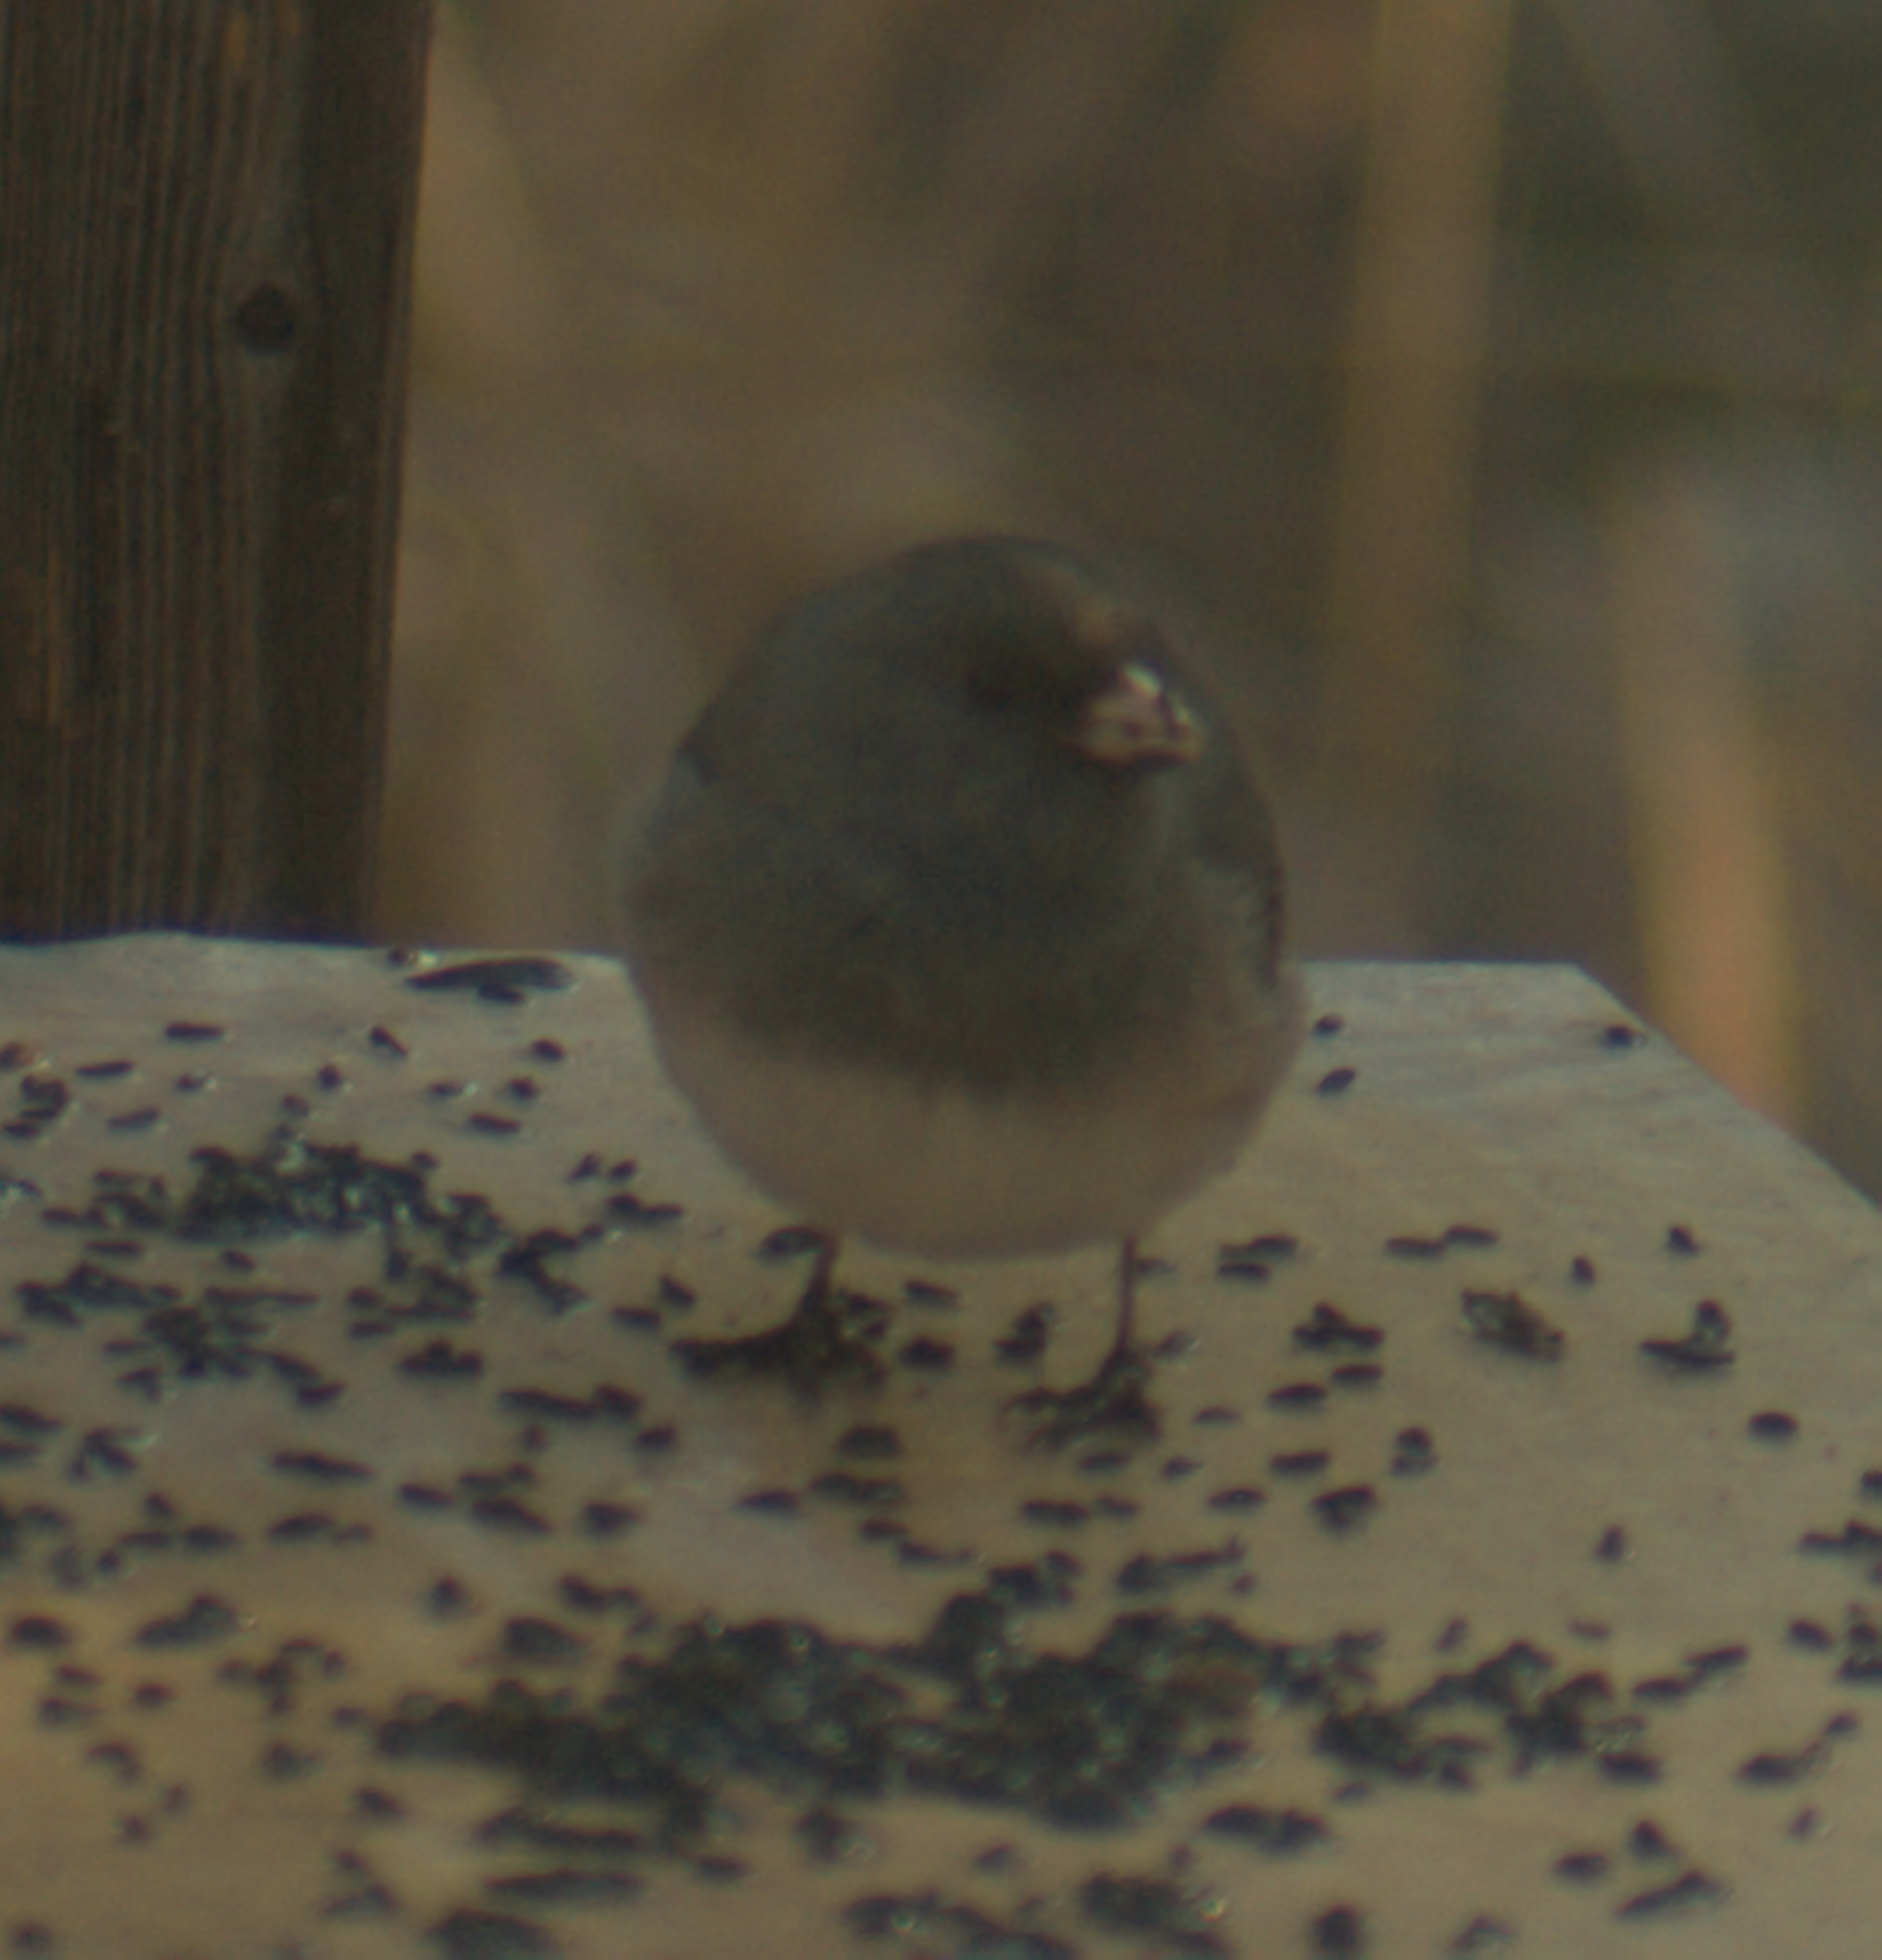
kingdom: Animalia
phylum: Chordata
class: Aves
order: Passeriformes
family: Passerellidae
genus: Junco
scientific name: Junco hyemalis
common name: Dark-eyed junco
